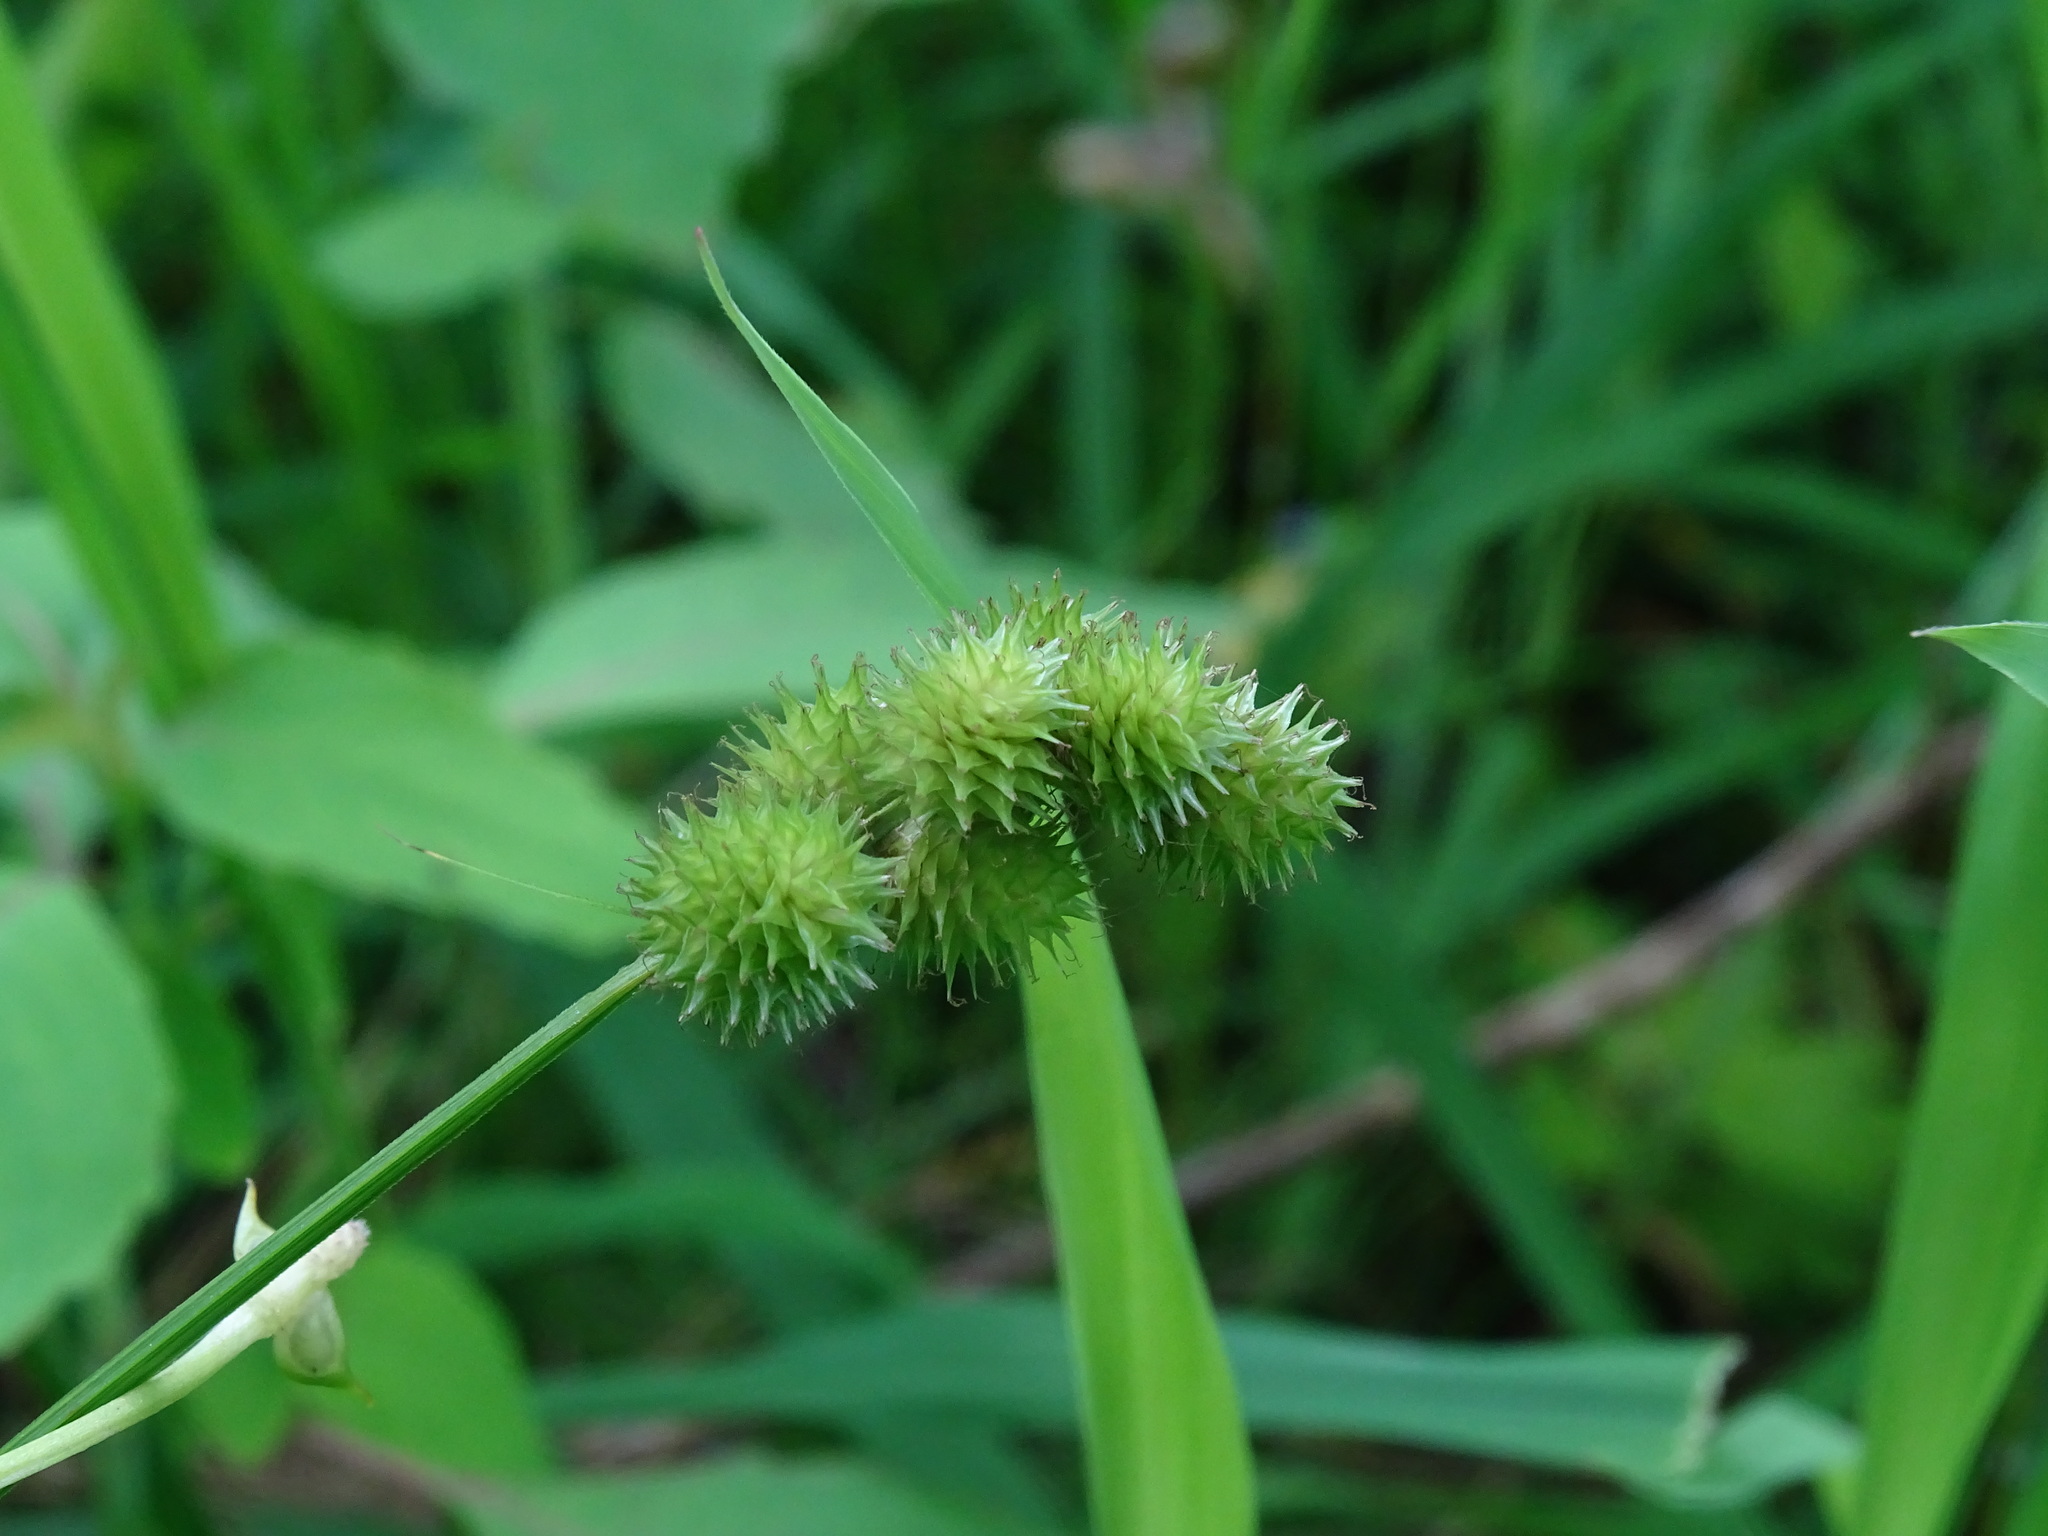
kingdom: Plantae
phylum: Tracheophyta
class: Liliopsida
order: Poales
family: Cyperaceae
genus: Carex
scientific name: Carex cristatella
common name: Crested oval sedge
